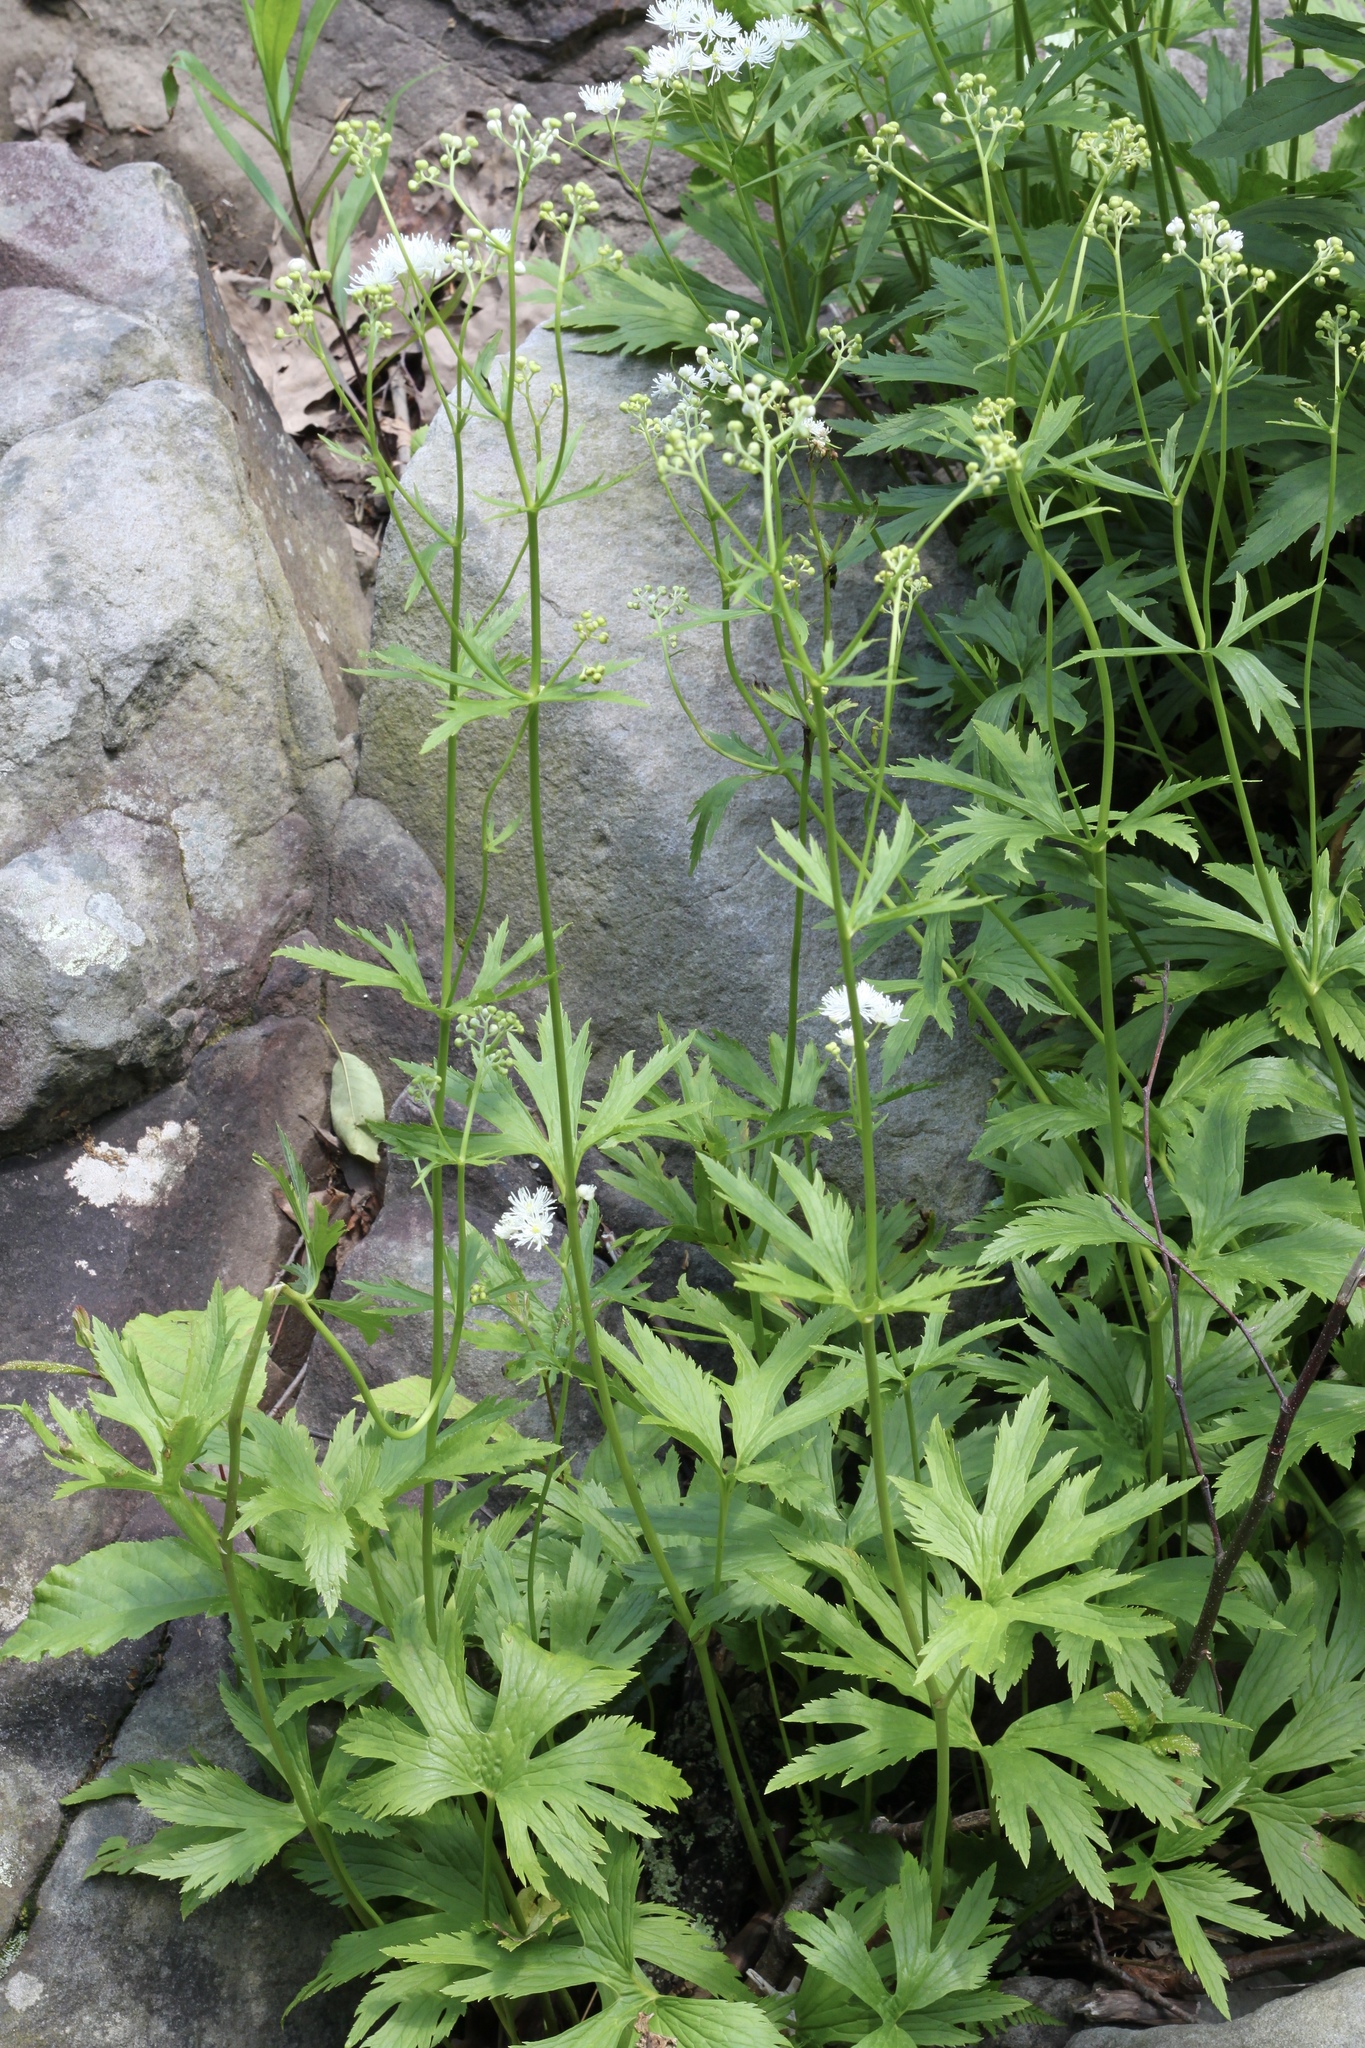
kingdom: Plantae
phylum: Tracheophyta
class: Magnoliopsida
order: Ranunculales
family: Ranunculaceae
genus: Trautvetteria
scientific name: Trautvetteria carolinensis
